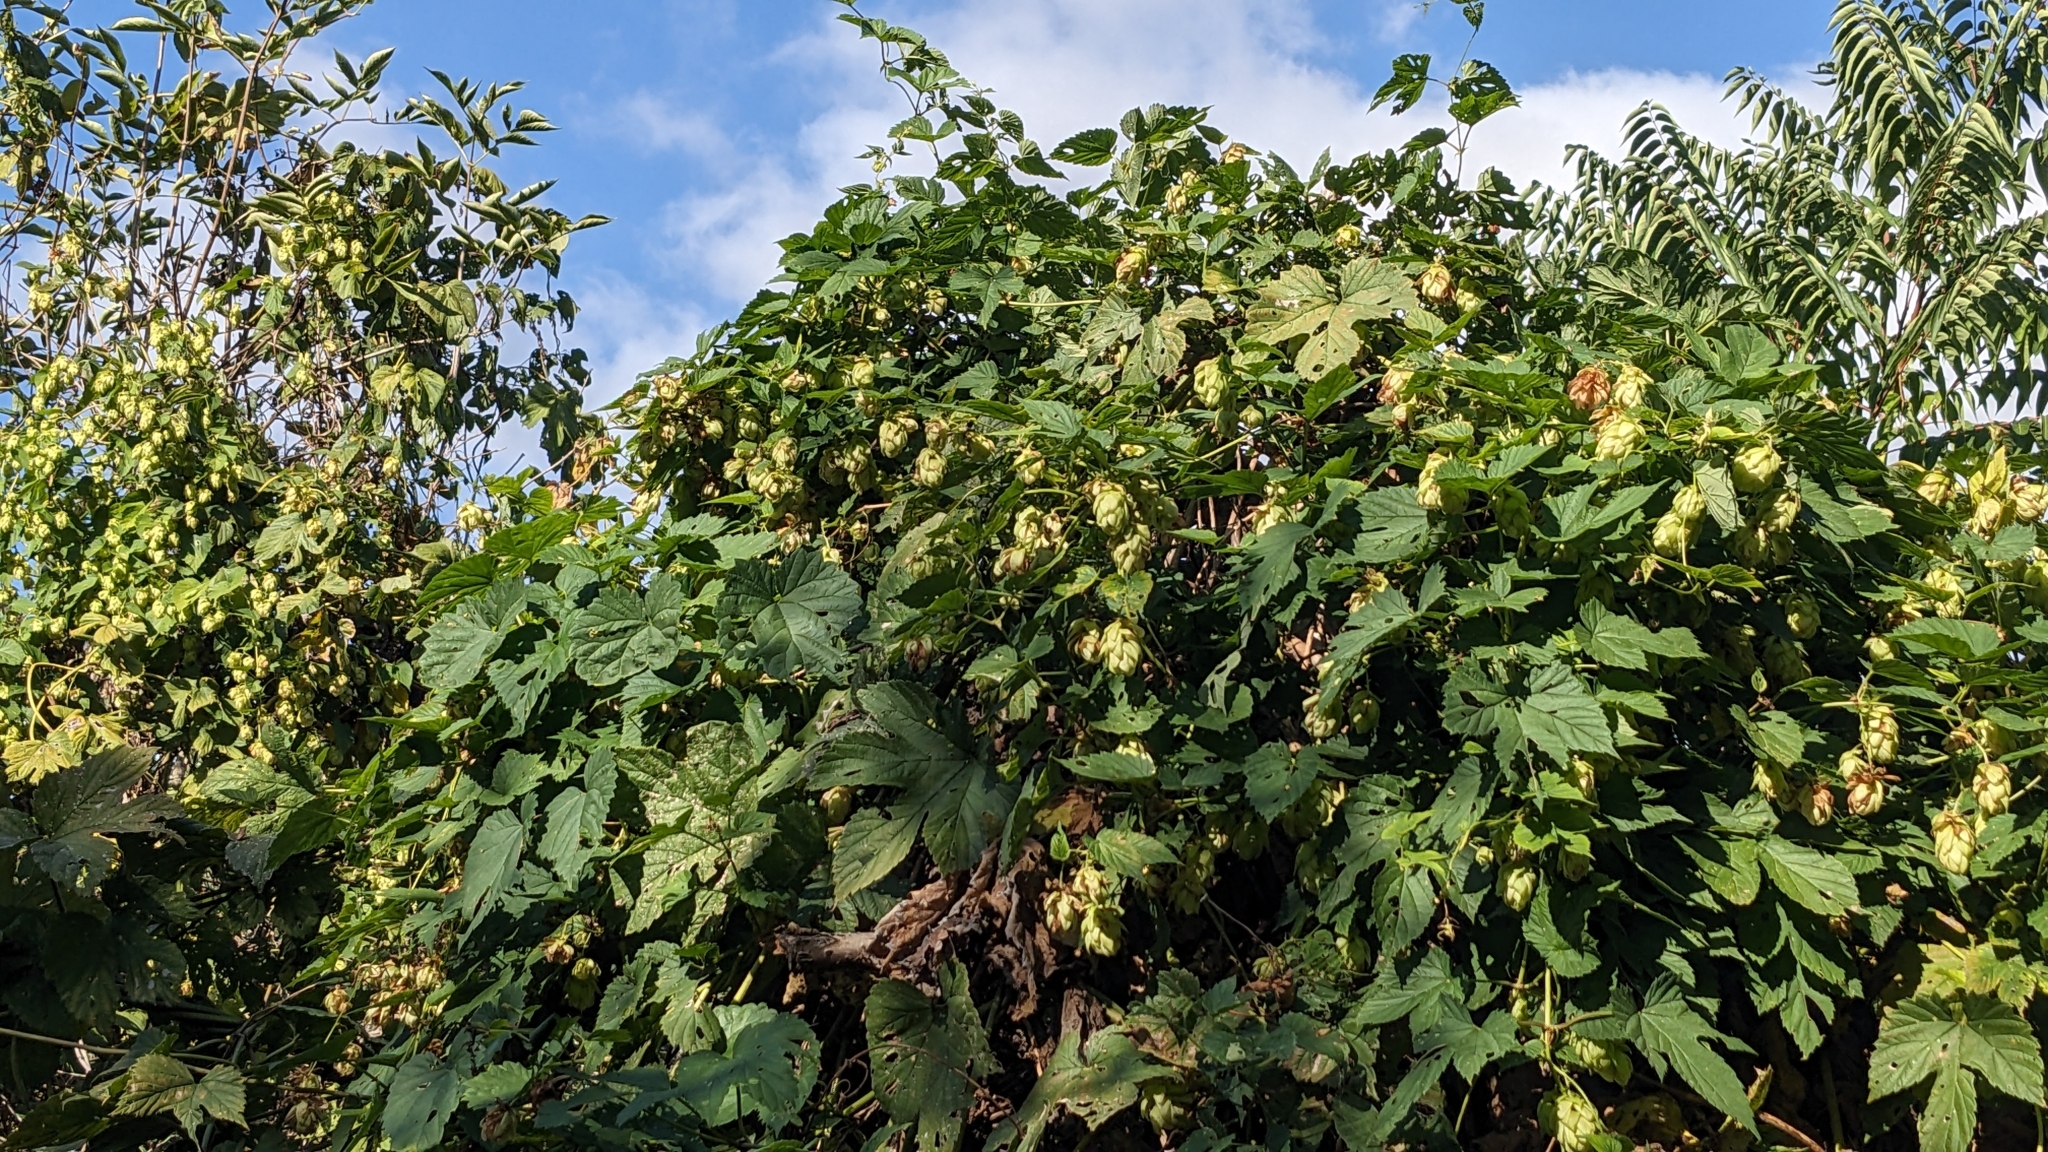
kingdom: Plantae
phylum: Tracheophyta
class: Magnoliopsida
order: Rosales
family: Cannabaceae
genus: Humulus
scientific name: Humulus lupulus
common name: Hop
